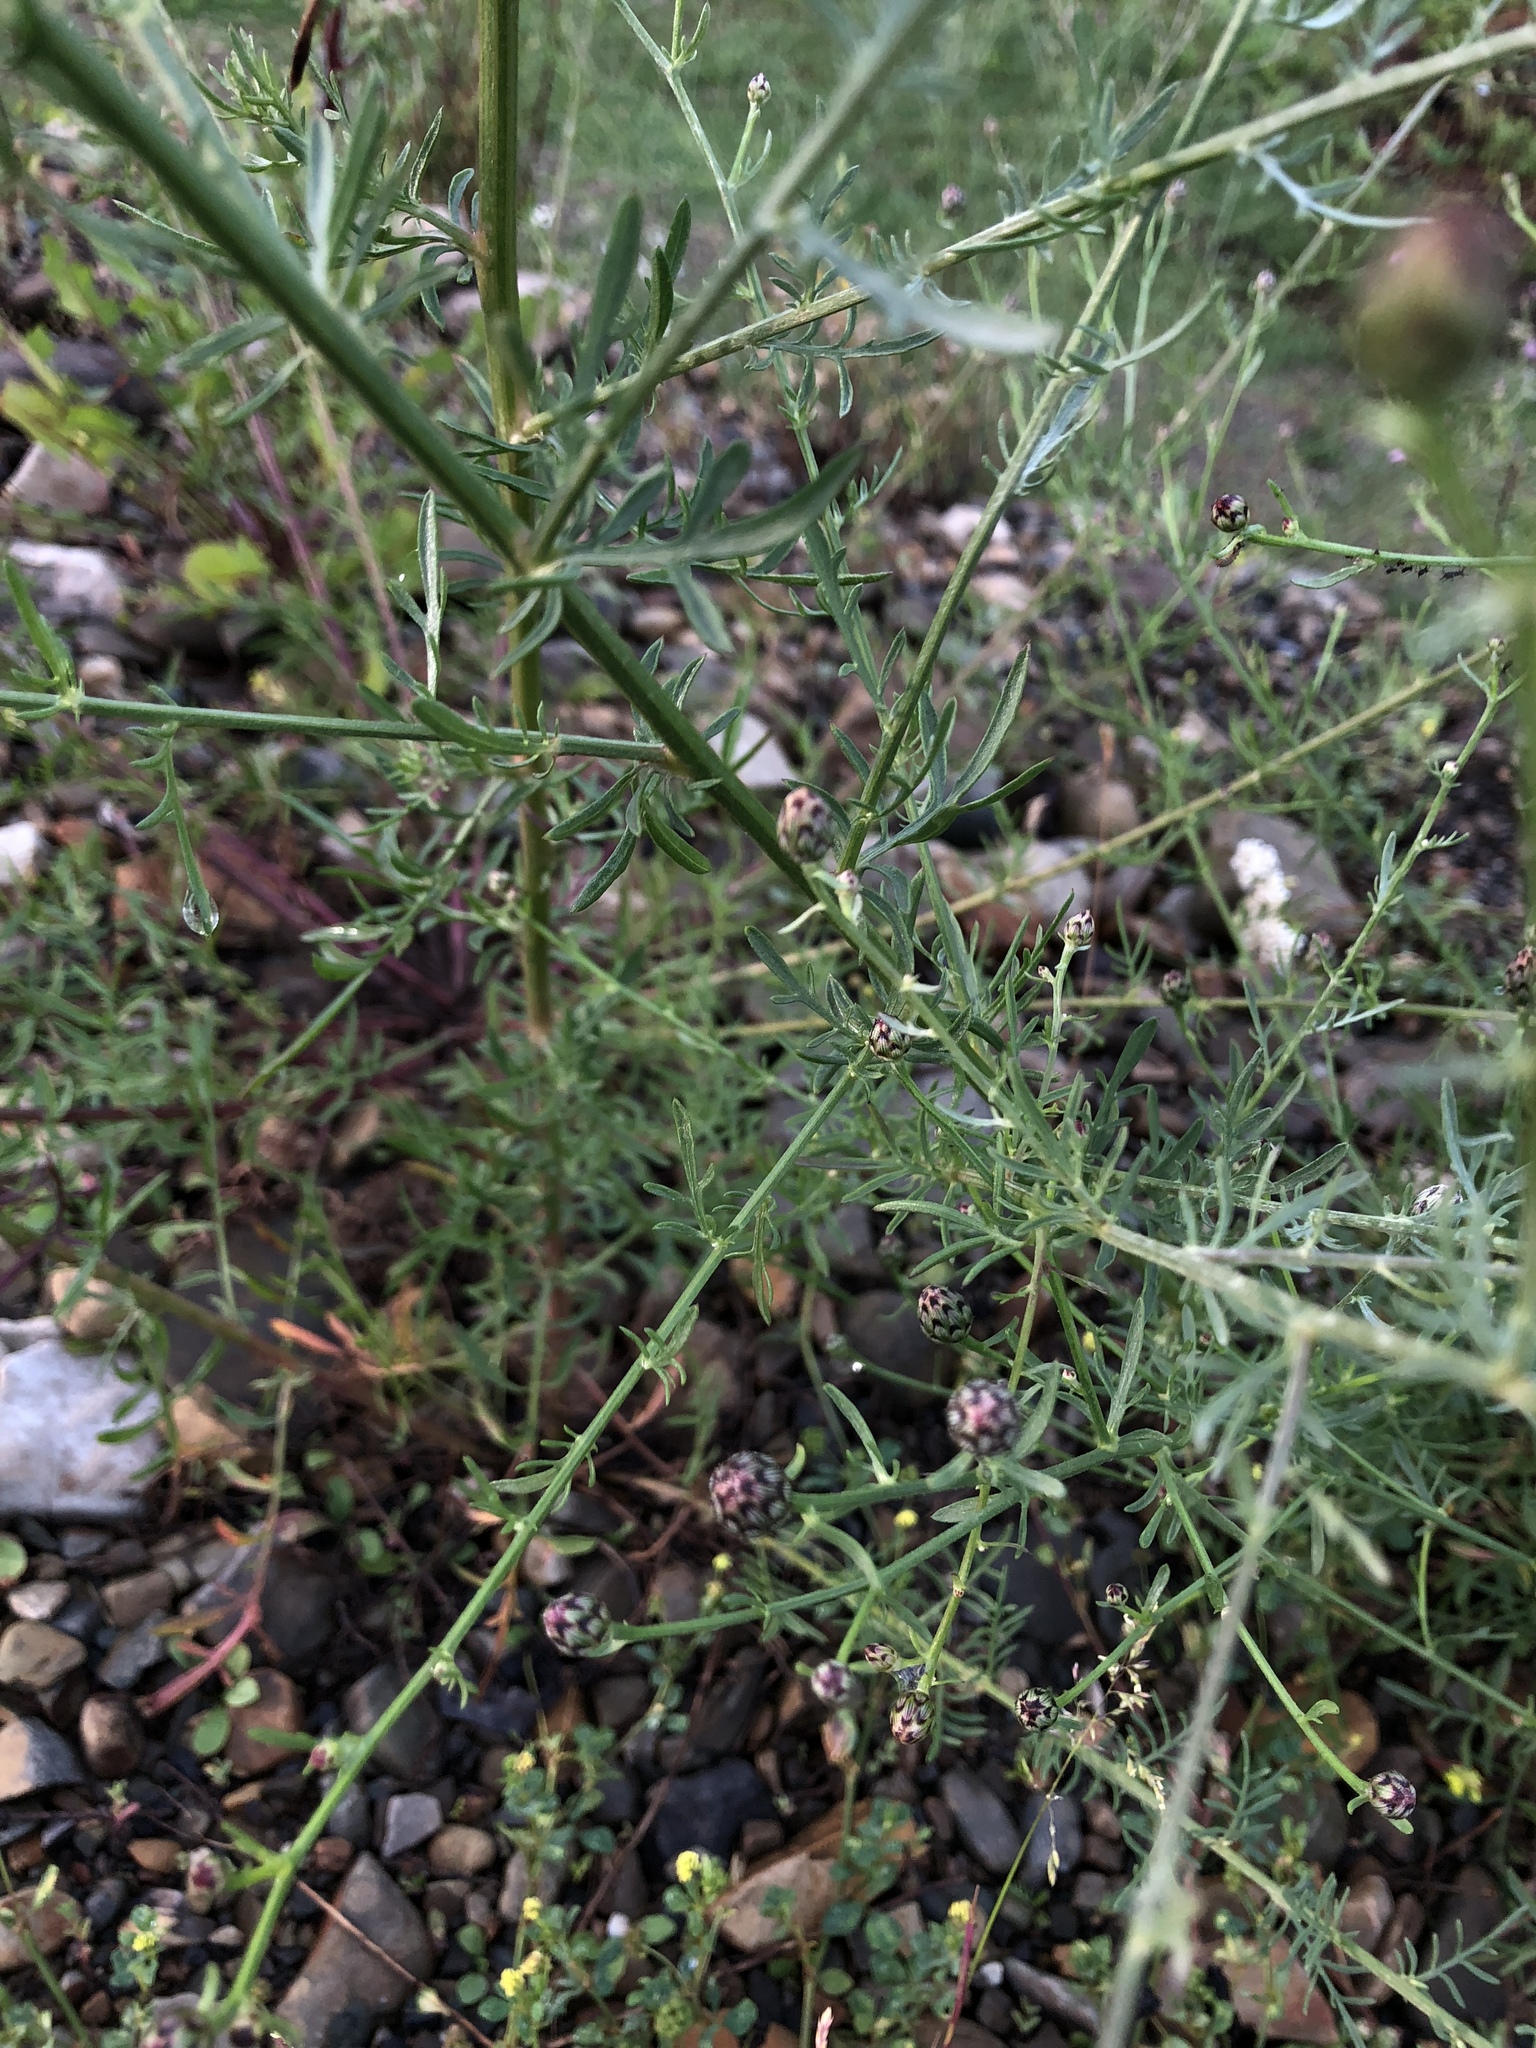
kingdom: Plantae
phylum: Tracheophyta
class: Magnoliopsida
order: Asterales
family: Asteraceae
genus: Centaurea
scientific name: Centaurea australis
